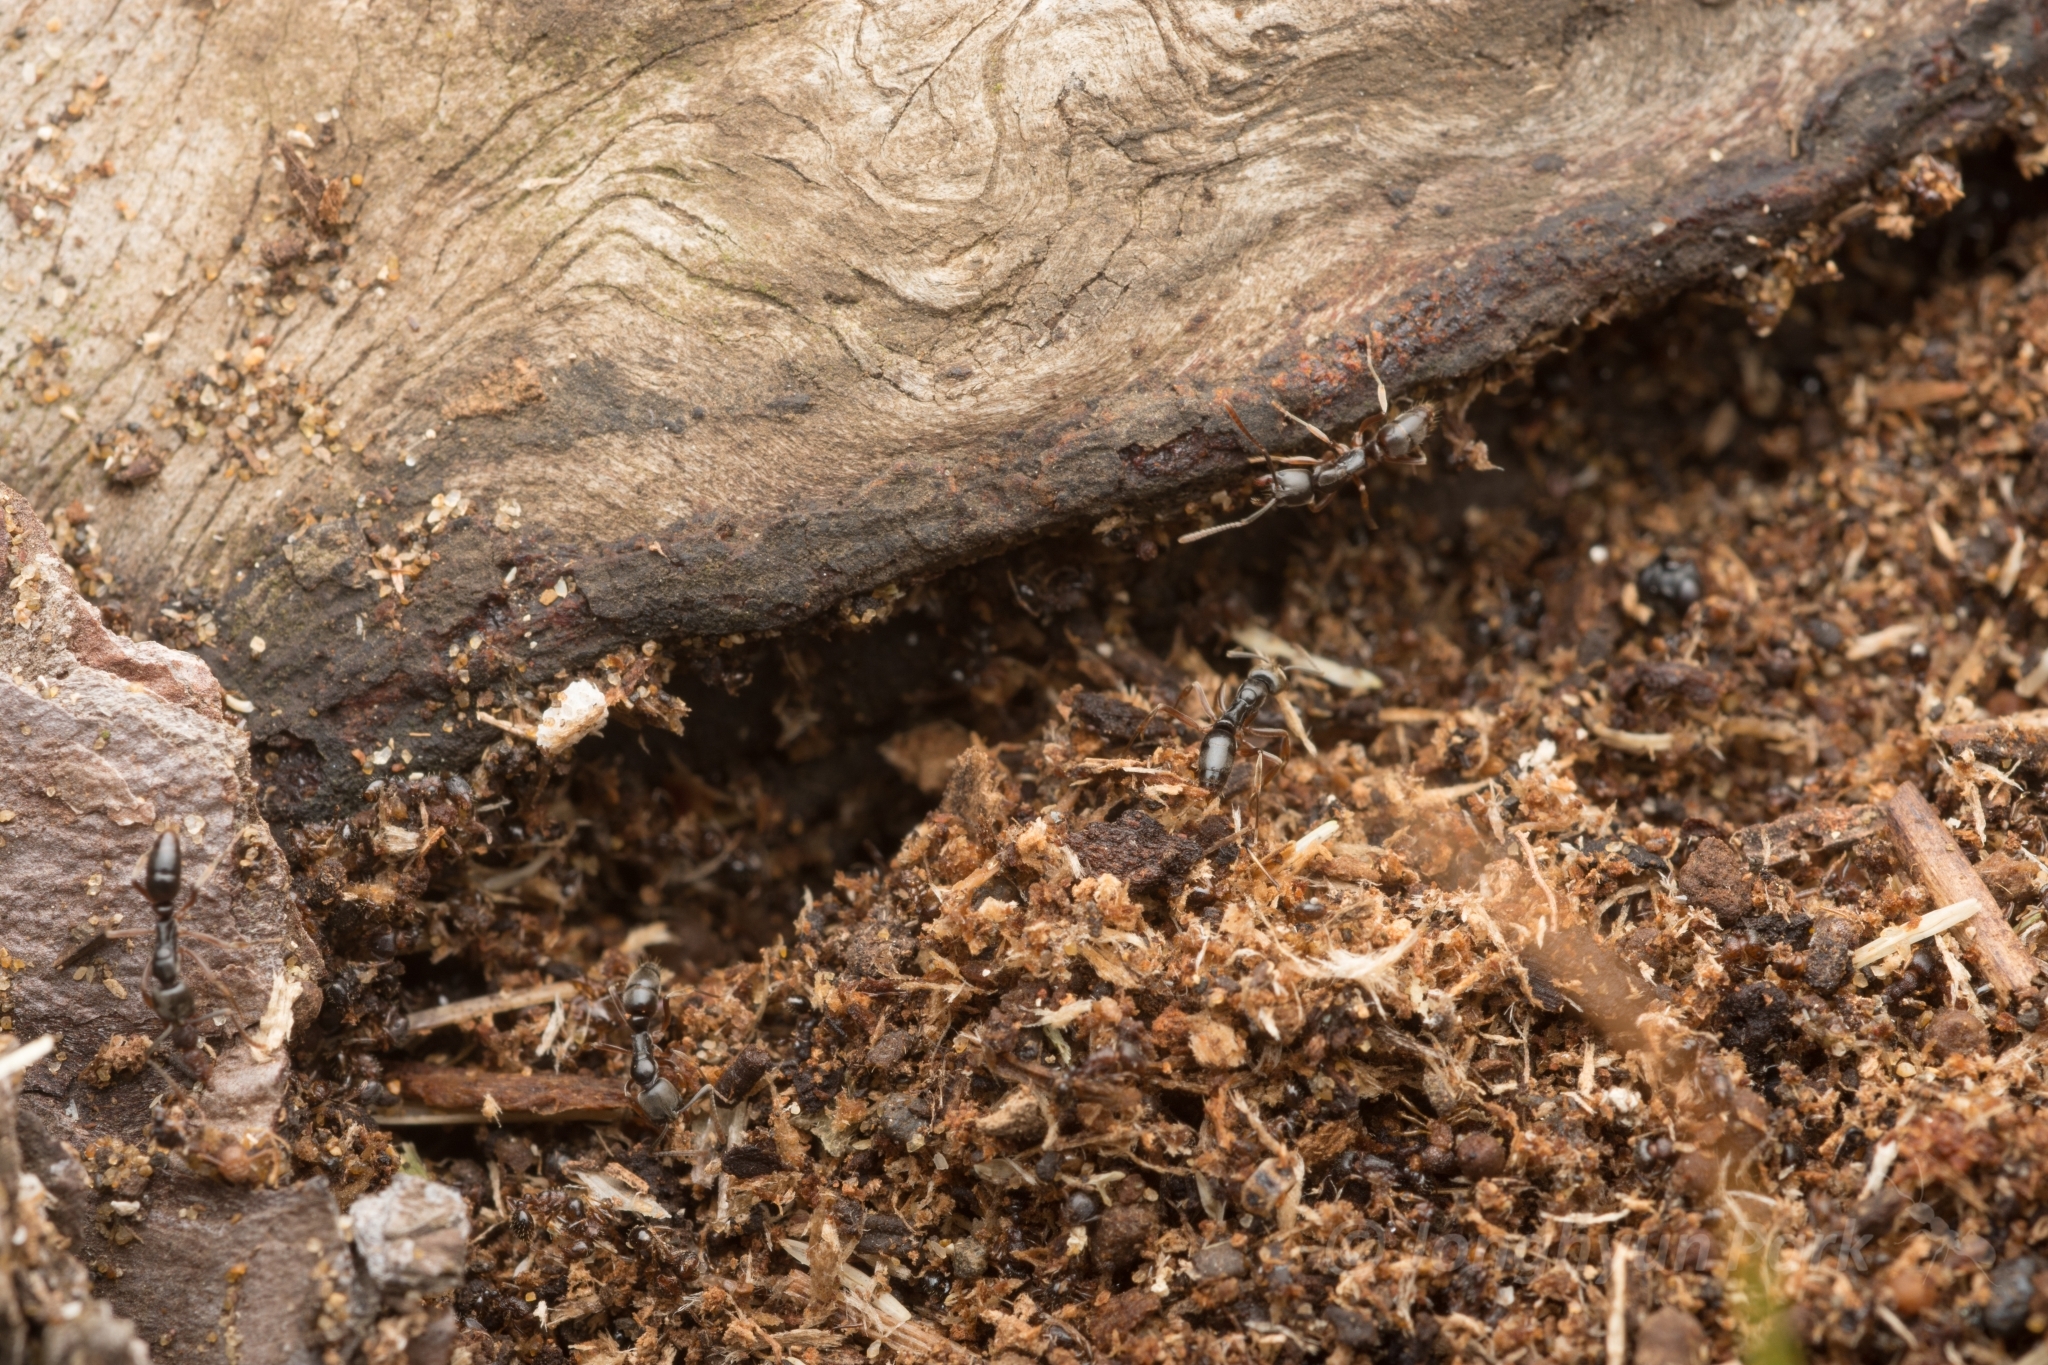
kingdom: Animalia
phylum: Arthropoda
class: Insecta
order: Hymenoptera
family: Formicidae
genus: Pachycondyla
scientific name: Pachycondyla chinensis
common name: Asian needle ant
